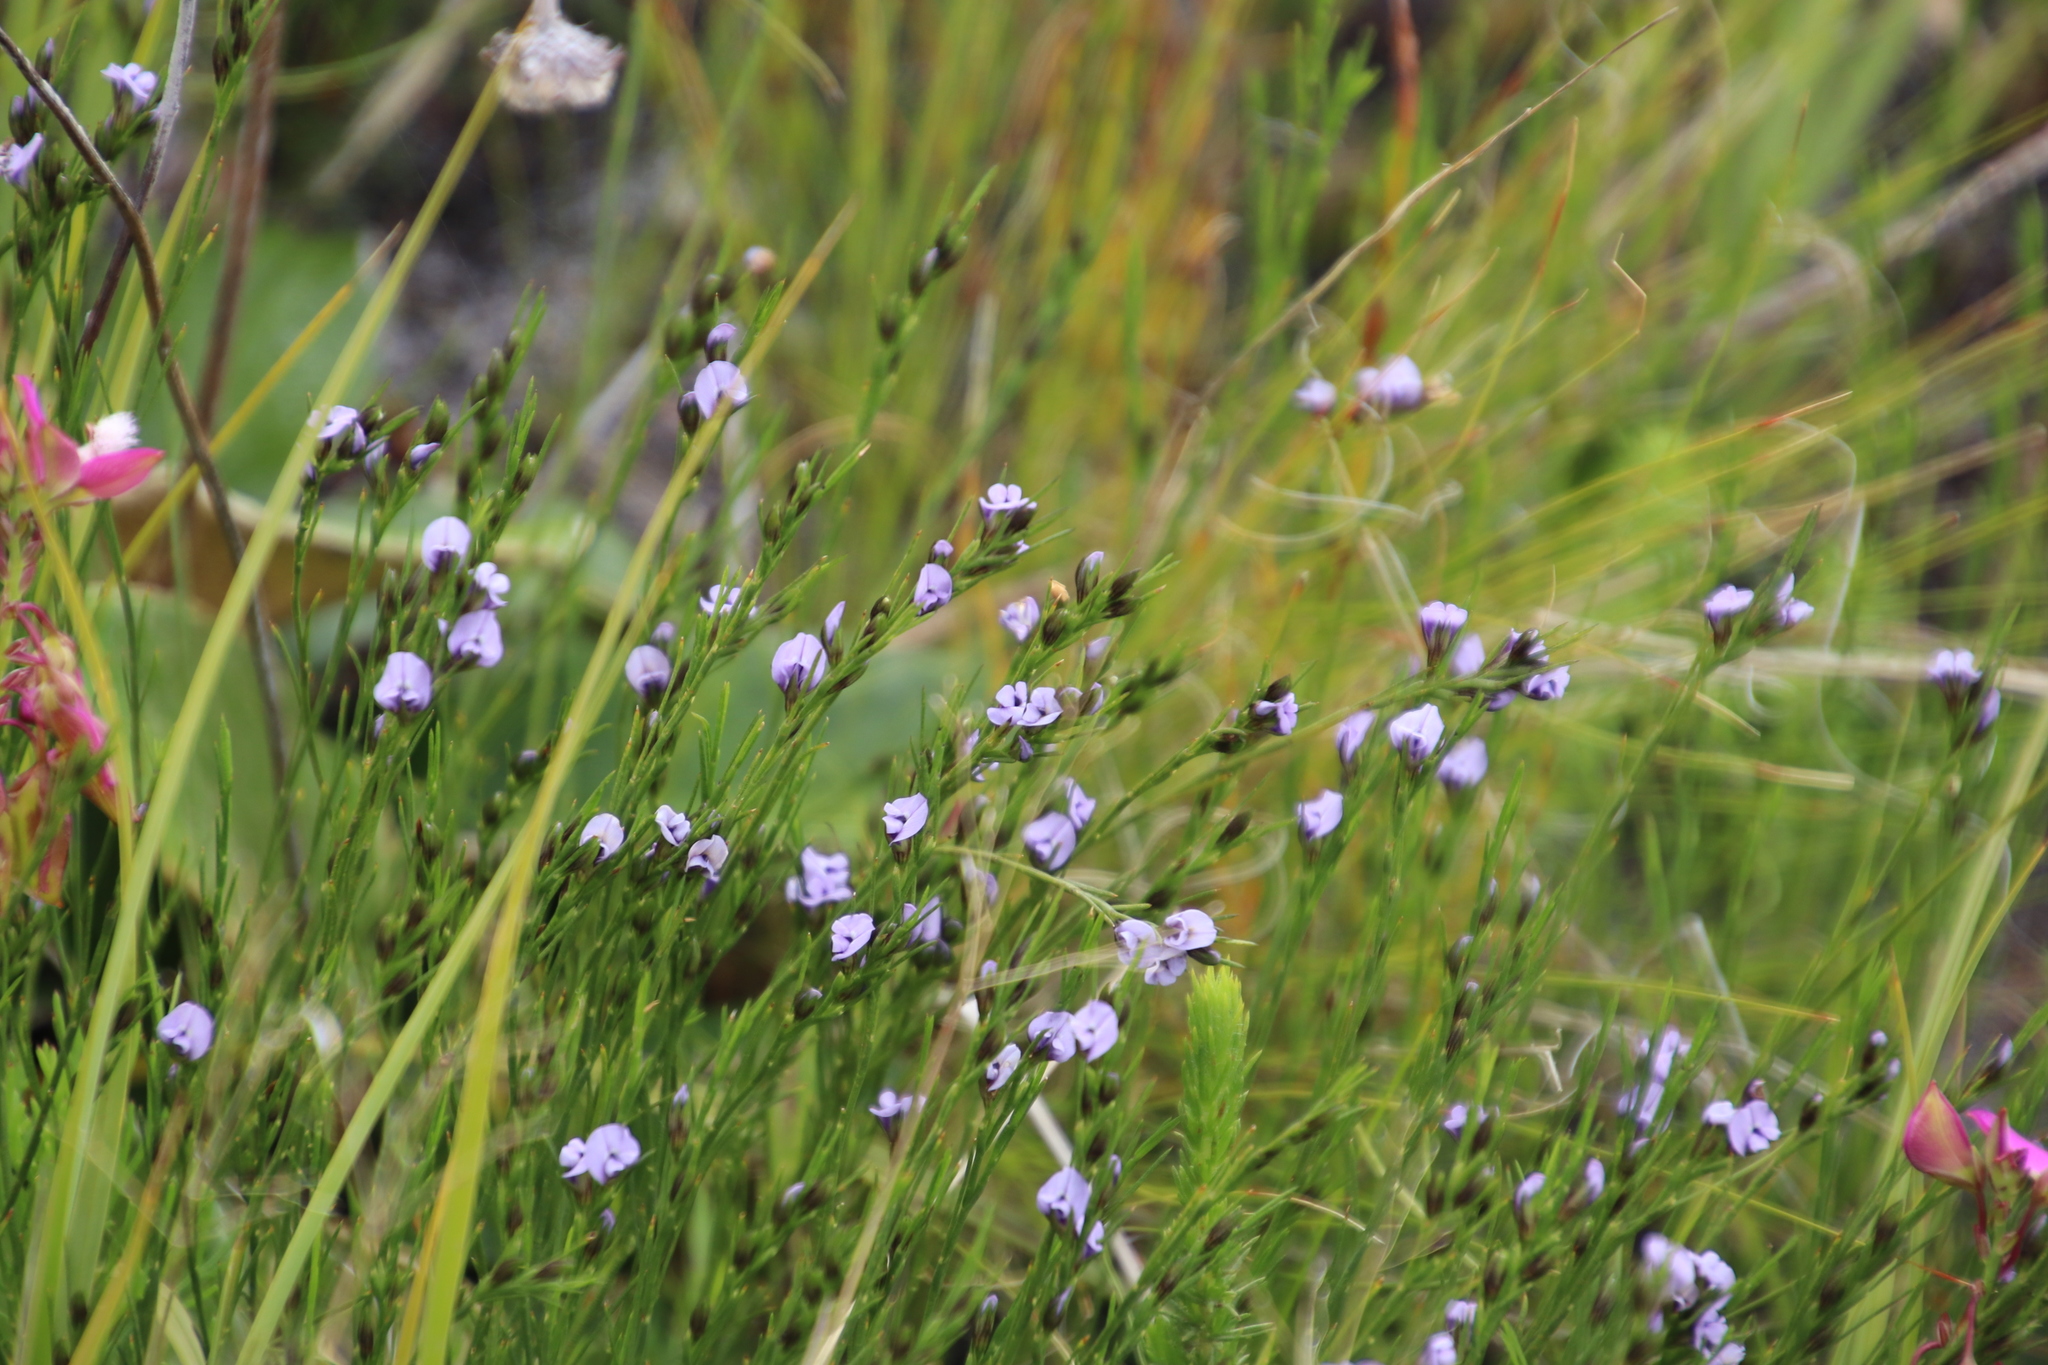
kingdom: Plantae
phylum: Tracheophyta
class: Magnoliopsida
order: Fabales
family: Fabaceae
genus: Psoralea
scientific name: Psoralea restioides
